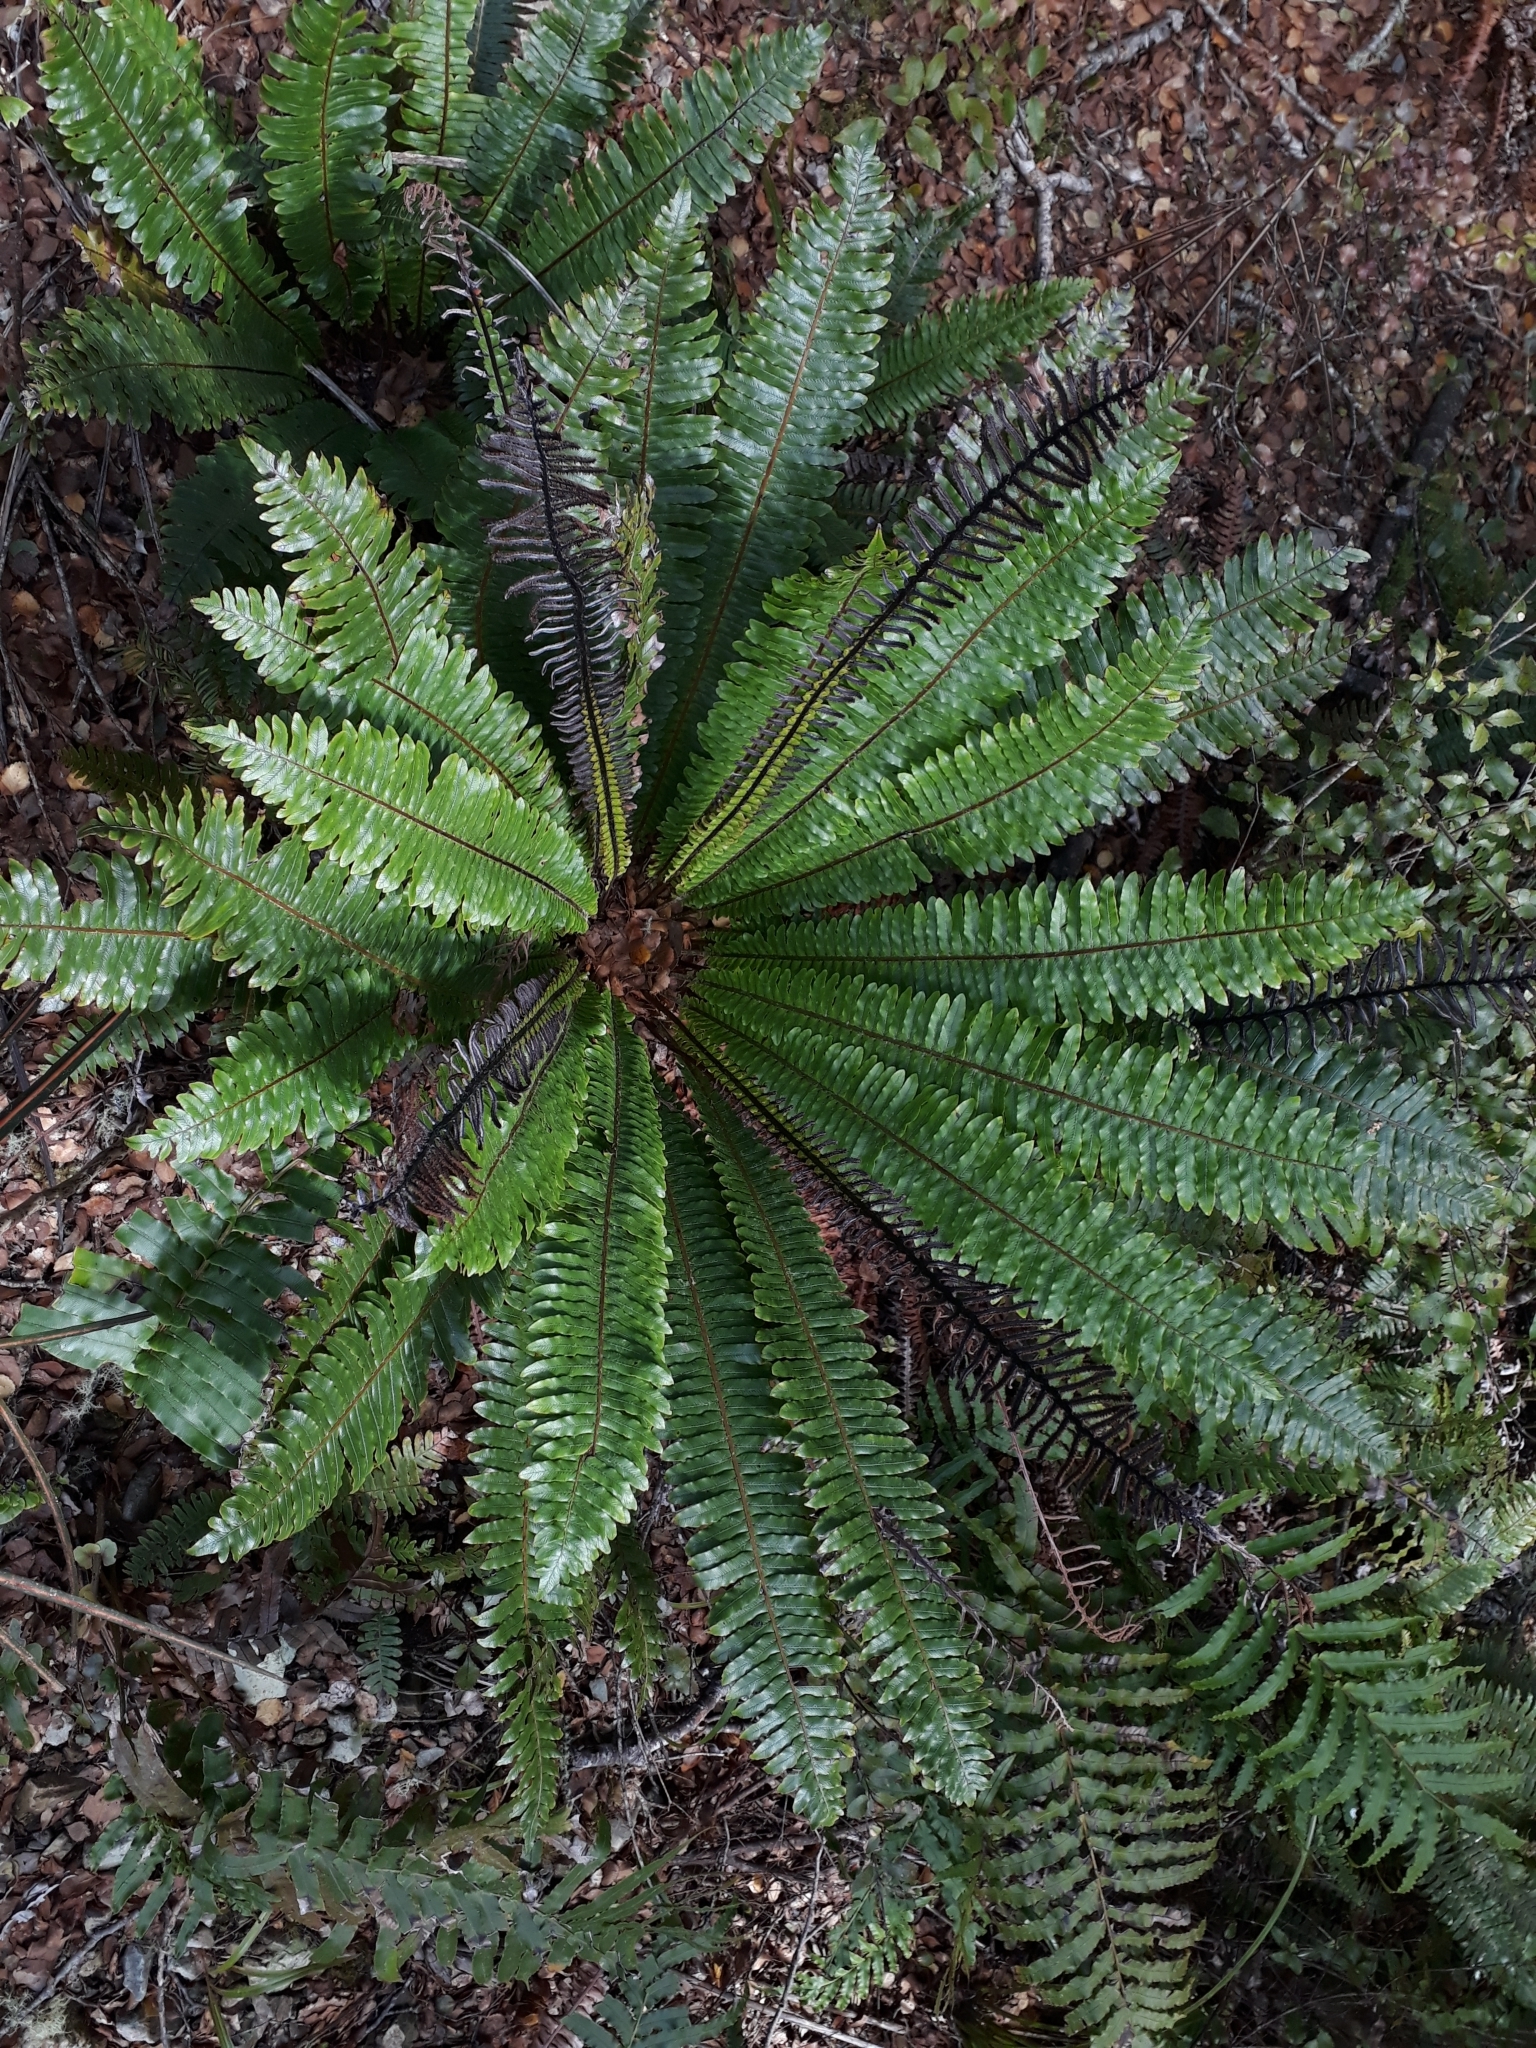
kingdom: Plantae
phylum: Tracheophyta
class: Polypodiopsida
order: Polypodiales
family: Blechnaceae
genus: Lomaria
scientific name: Lomaria discolor
